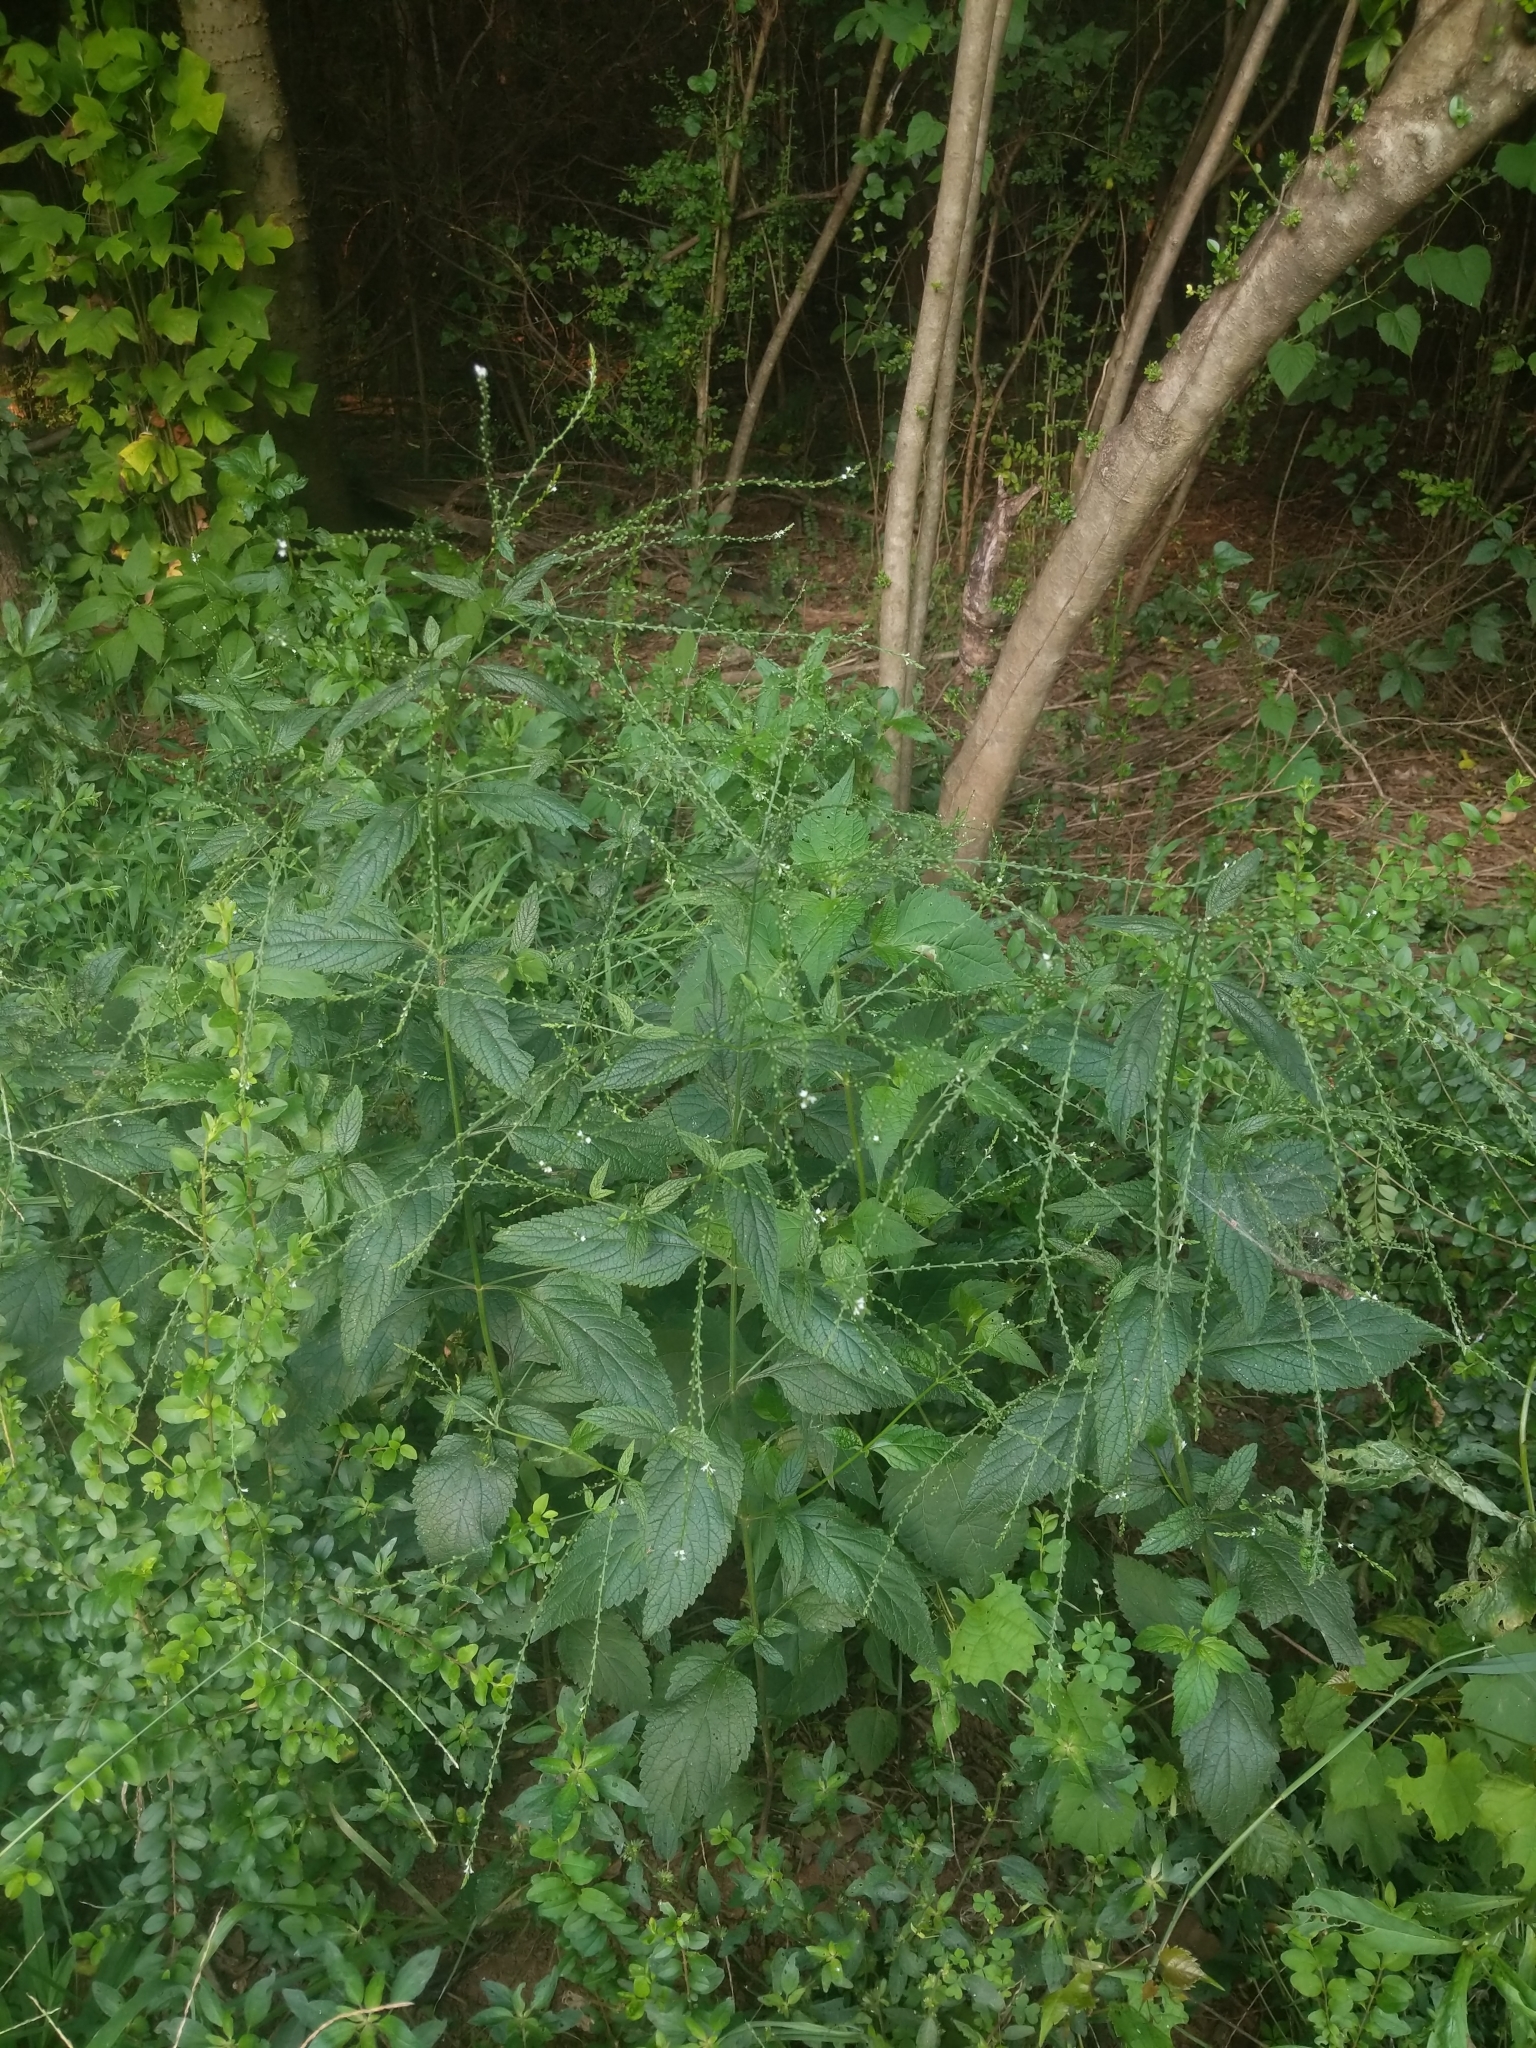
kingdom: Plantae
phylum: Tracheophyta
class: Magnoliopsida
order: Lamiales
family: Verbenaceae
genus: Verbena
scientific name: Verbena urticifolia
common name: Nettle-leaved vervain
